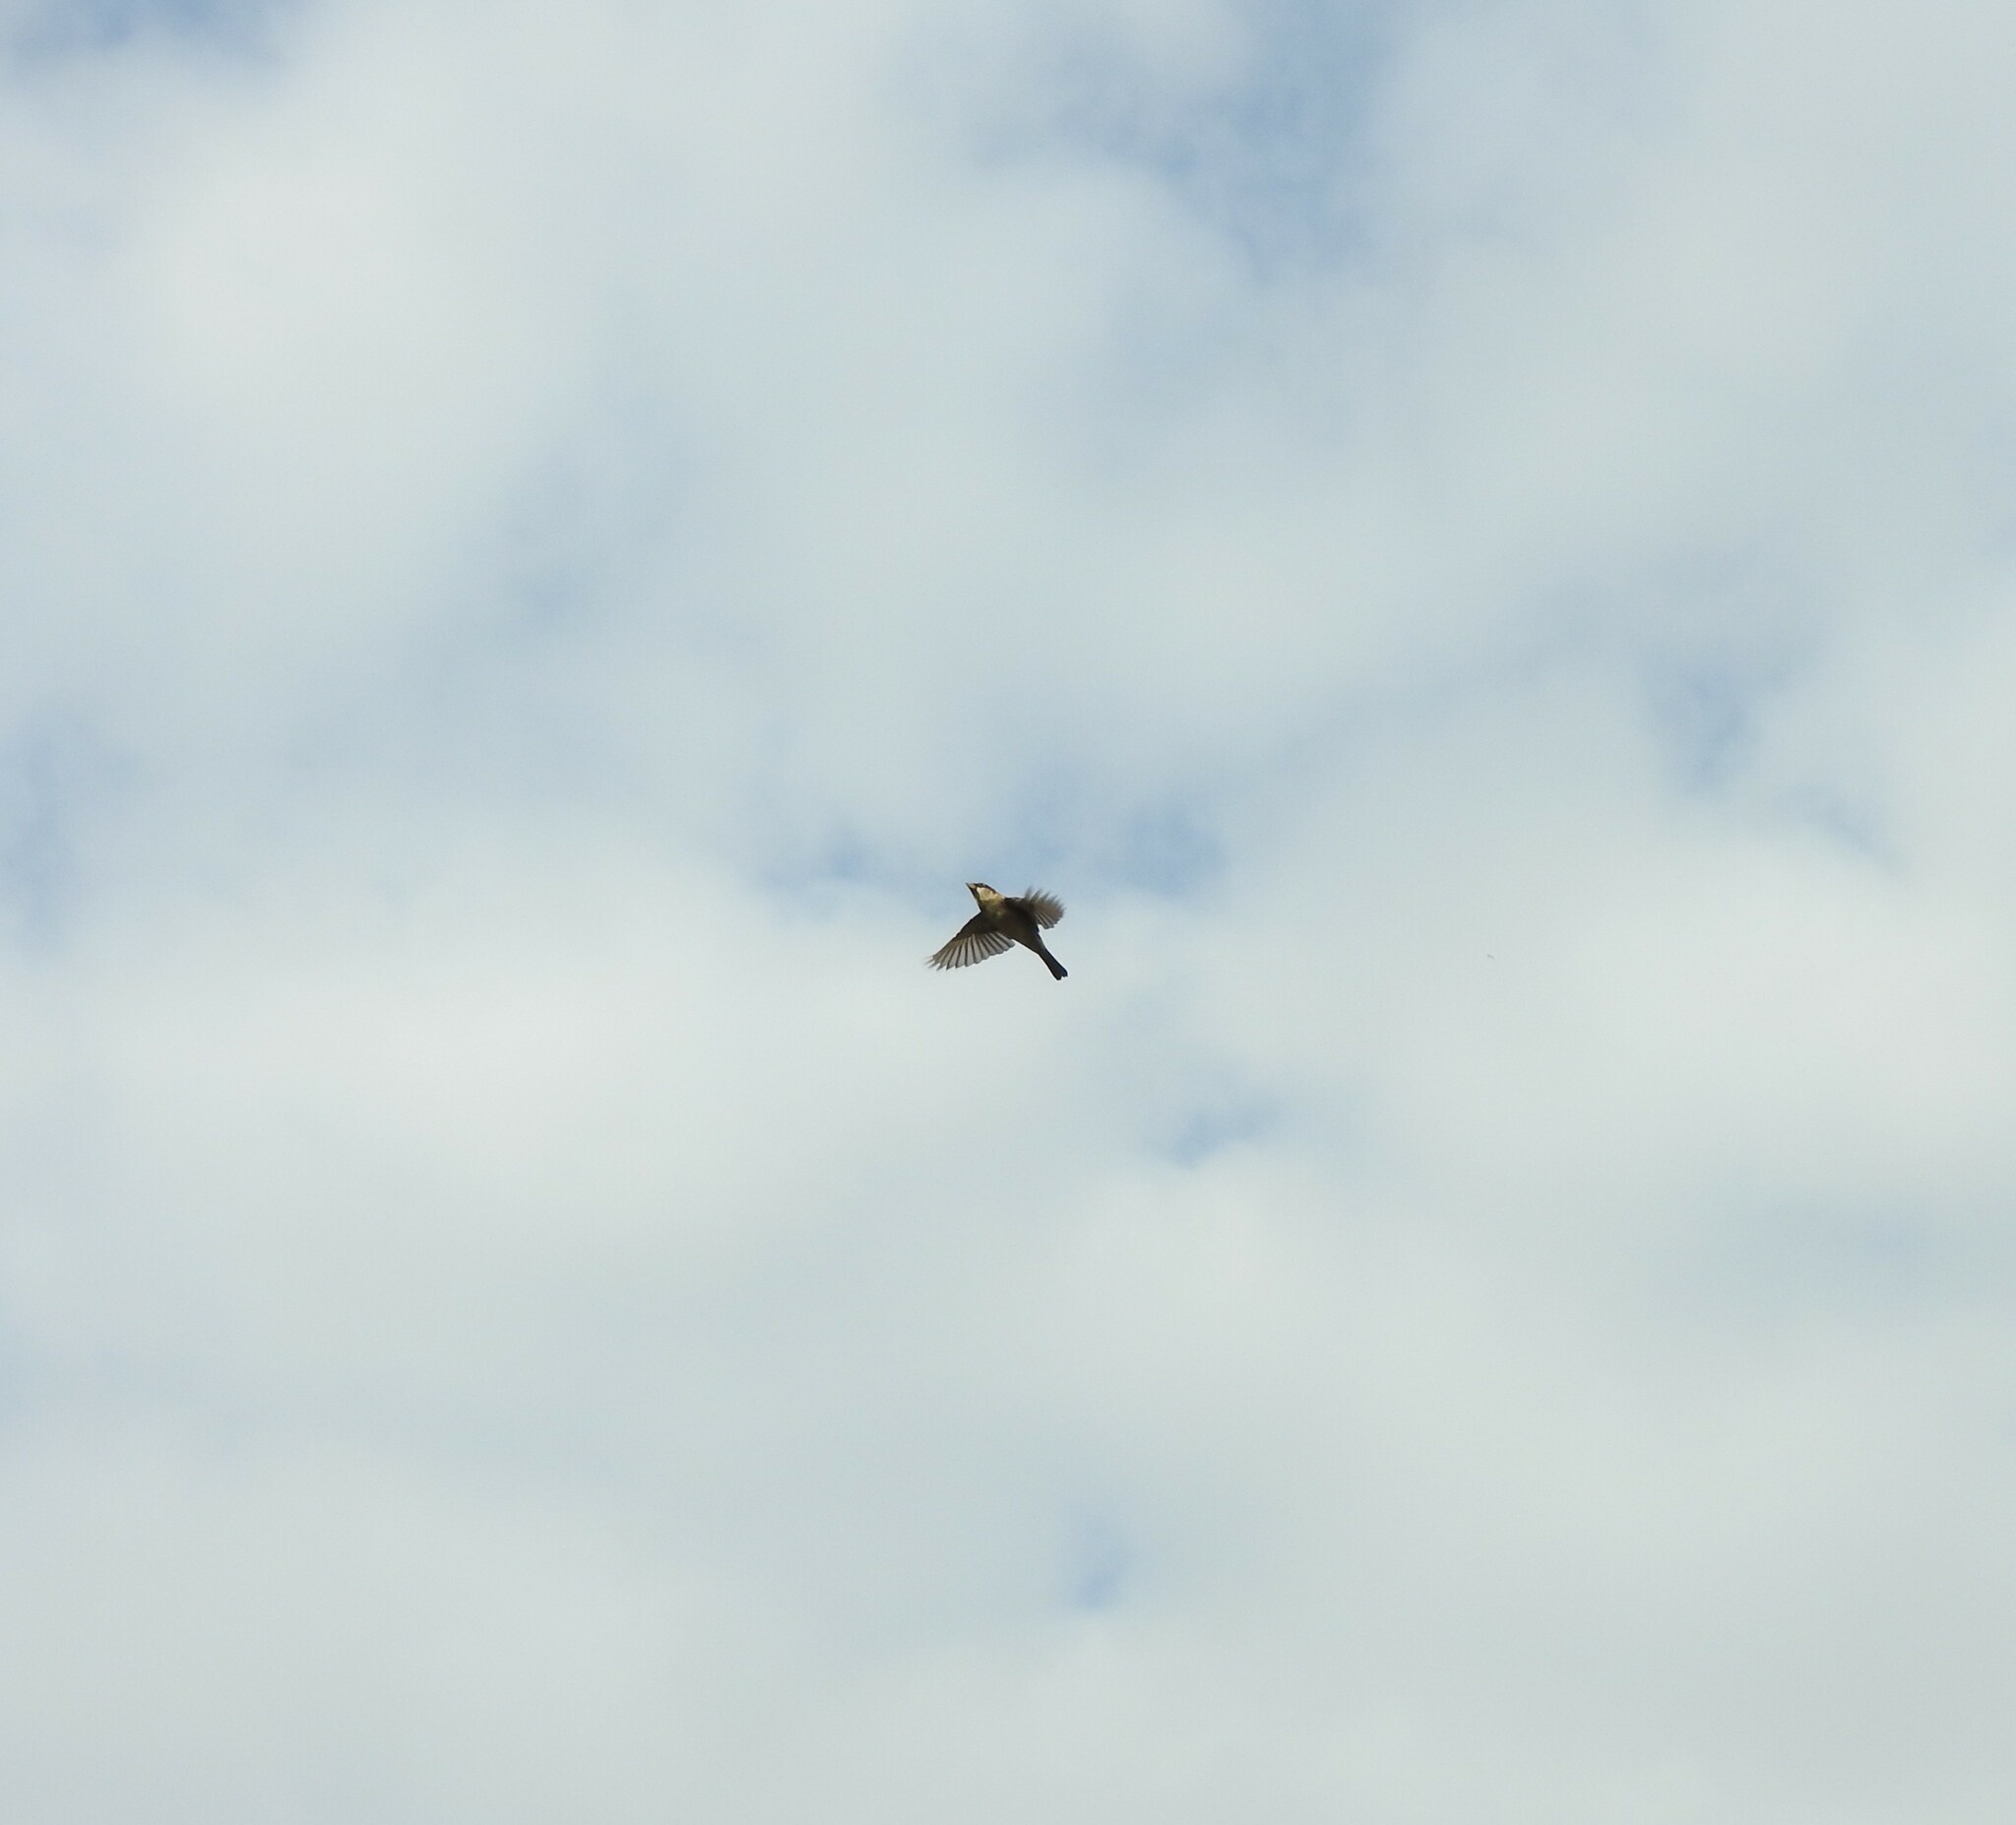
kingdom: Animalia
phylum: Chordata
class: Aves
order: Passeriformes
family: Passeridae
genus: Passer
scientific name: Passer domesticus
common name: House sparrow
